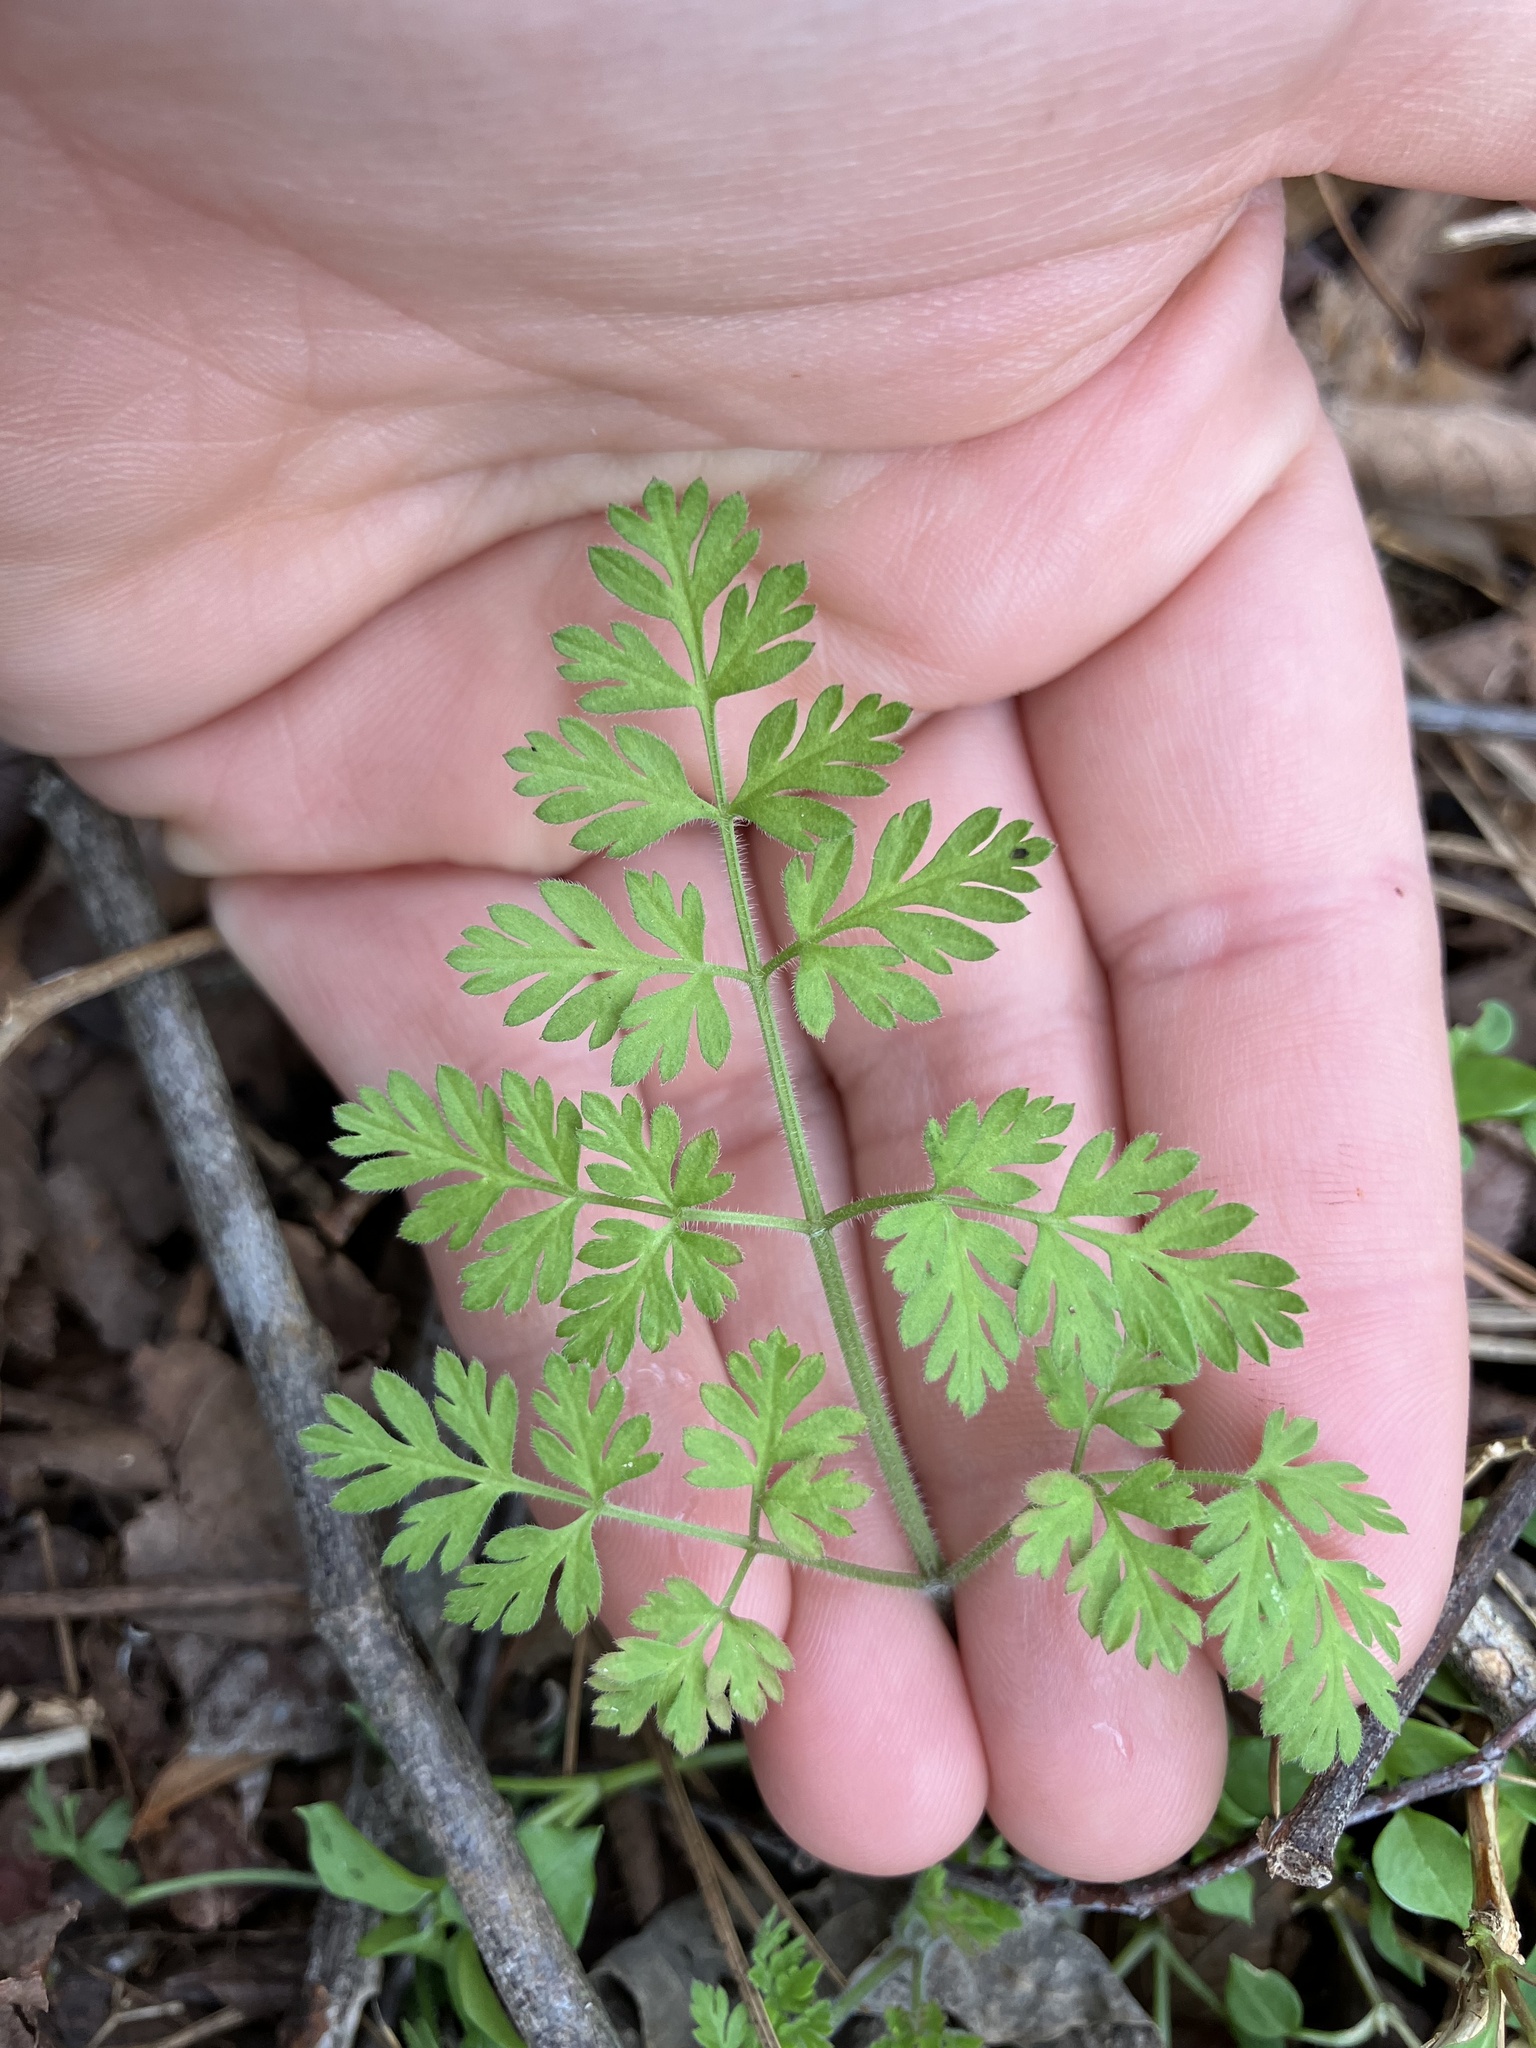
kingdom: Plantae
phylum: Tracheophyta
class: Magnoliopsida
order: Apiales
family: Apiaceae
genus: Chaerophyllum
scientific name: Chaerophyllum tainturieri
